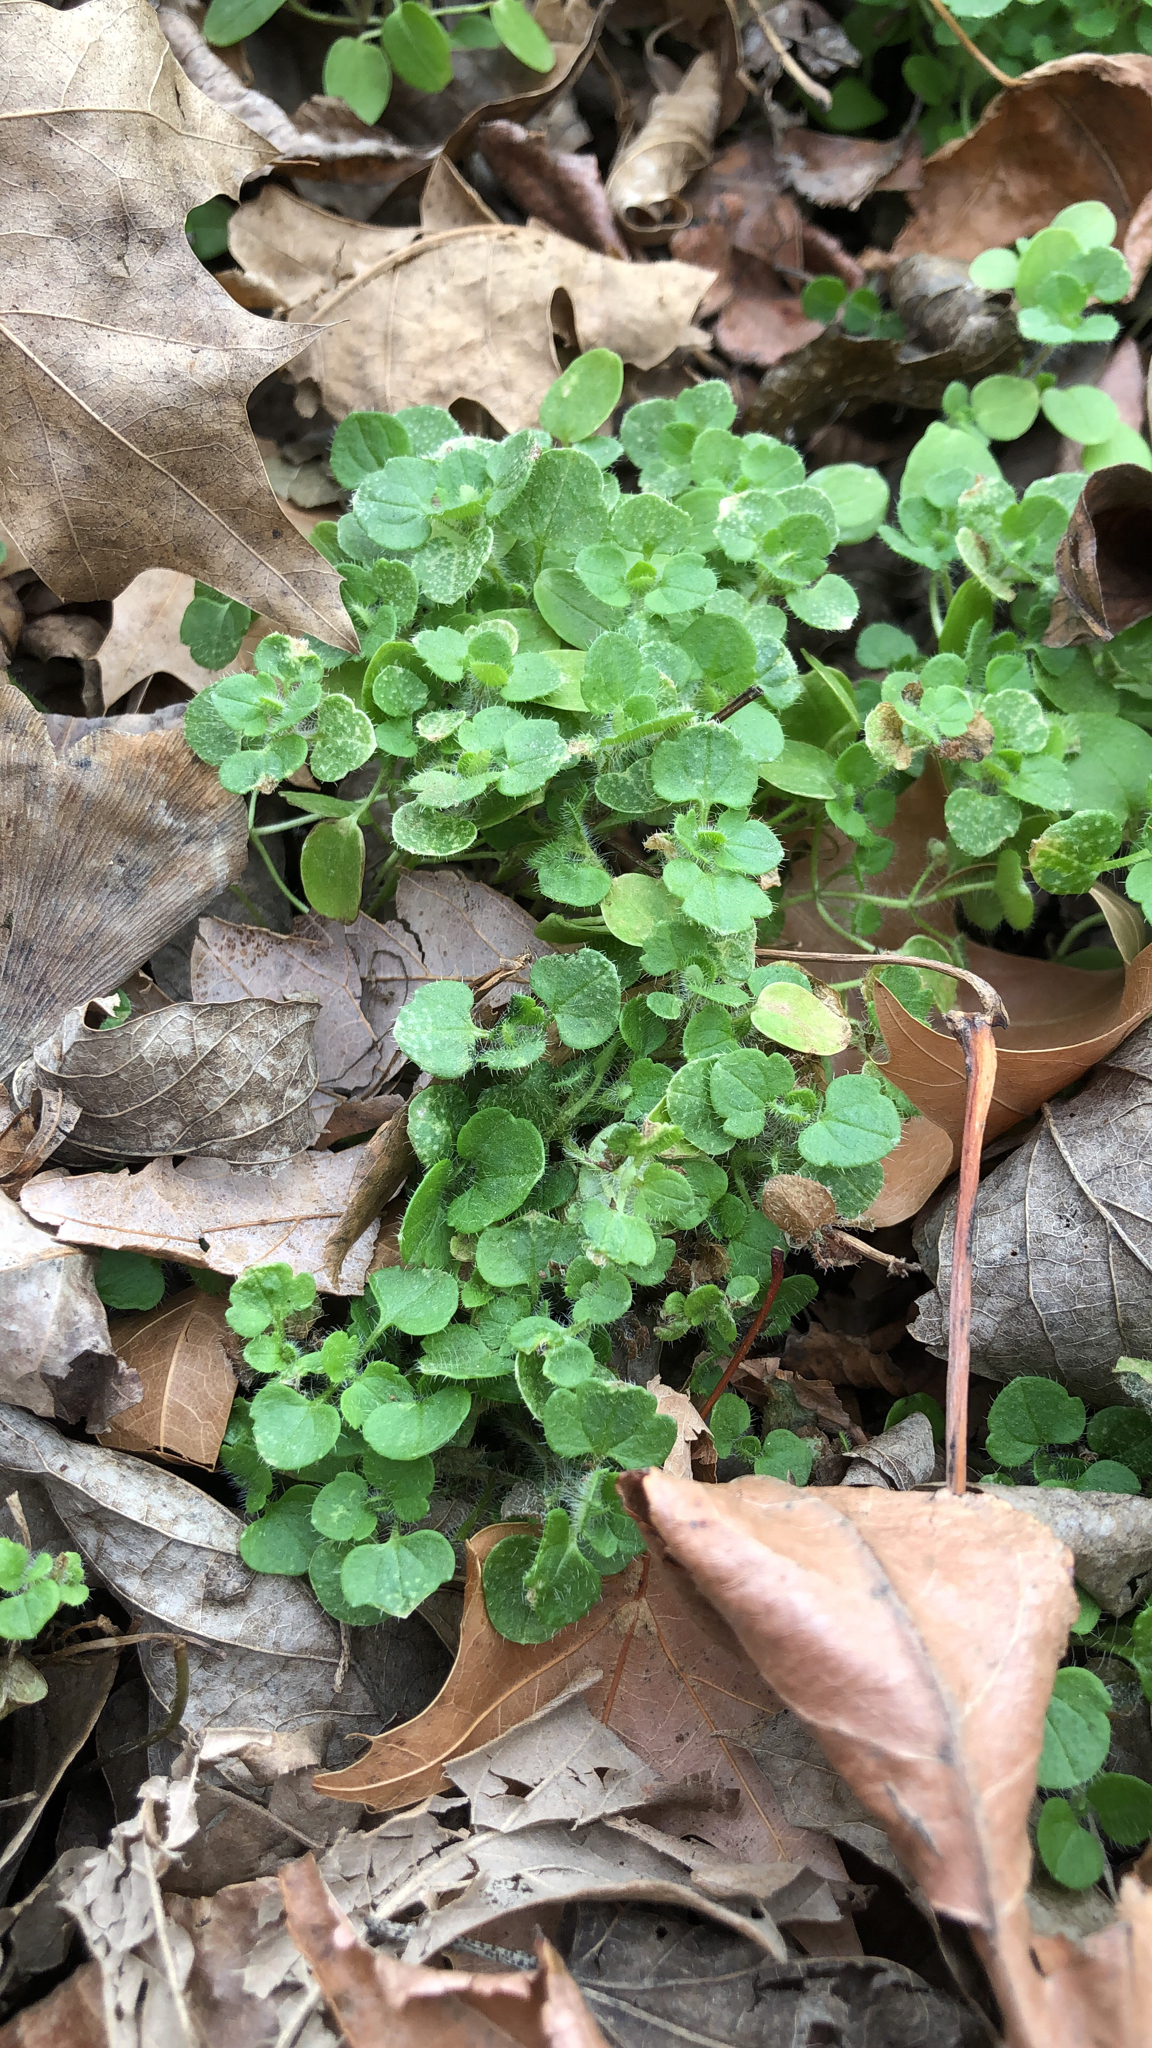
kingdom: Plantae
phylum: Tracheophyta
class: Magnoliopsida
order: Lamiales
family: Plantaginaceae
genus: Veronica
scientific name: Veronica hederifolia
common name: Ivy-leaved speedwell
